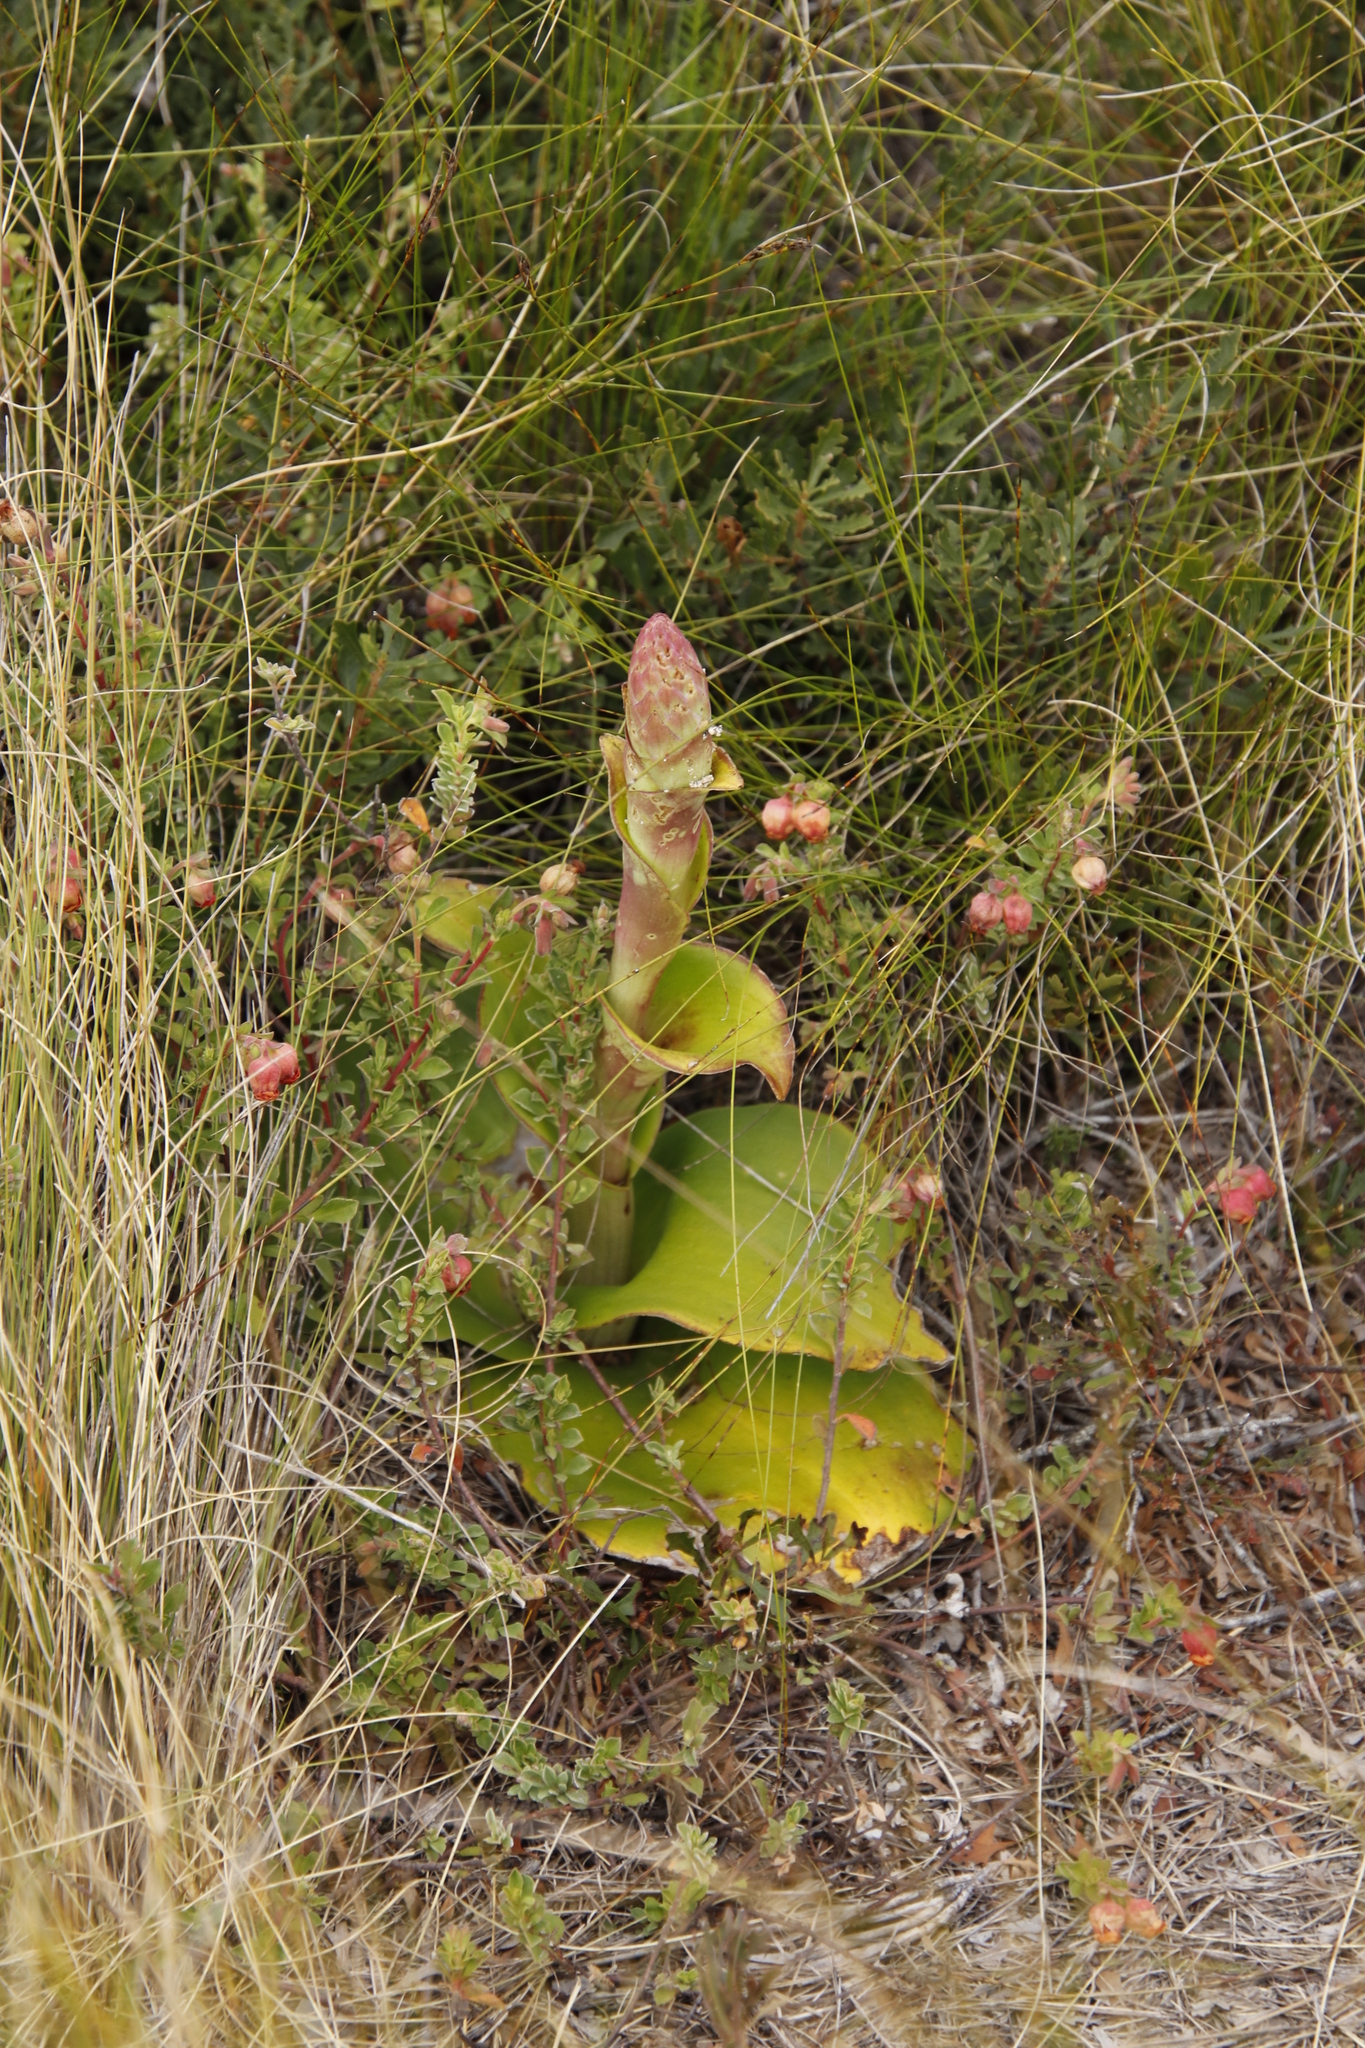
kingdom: Plantae
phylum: Tracheophyta
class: Liliopsida
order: Asparagales
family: Orchidaceae
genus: Satyrium
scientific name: Satyrium carneum
